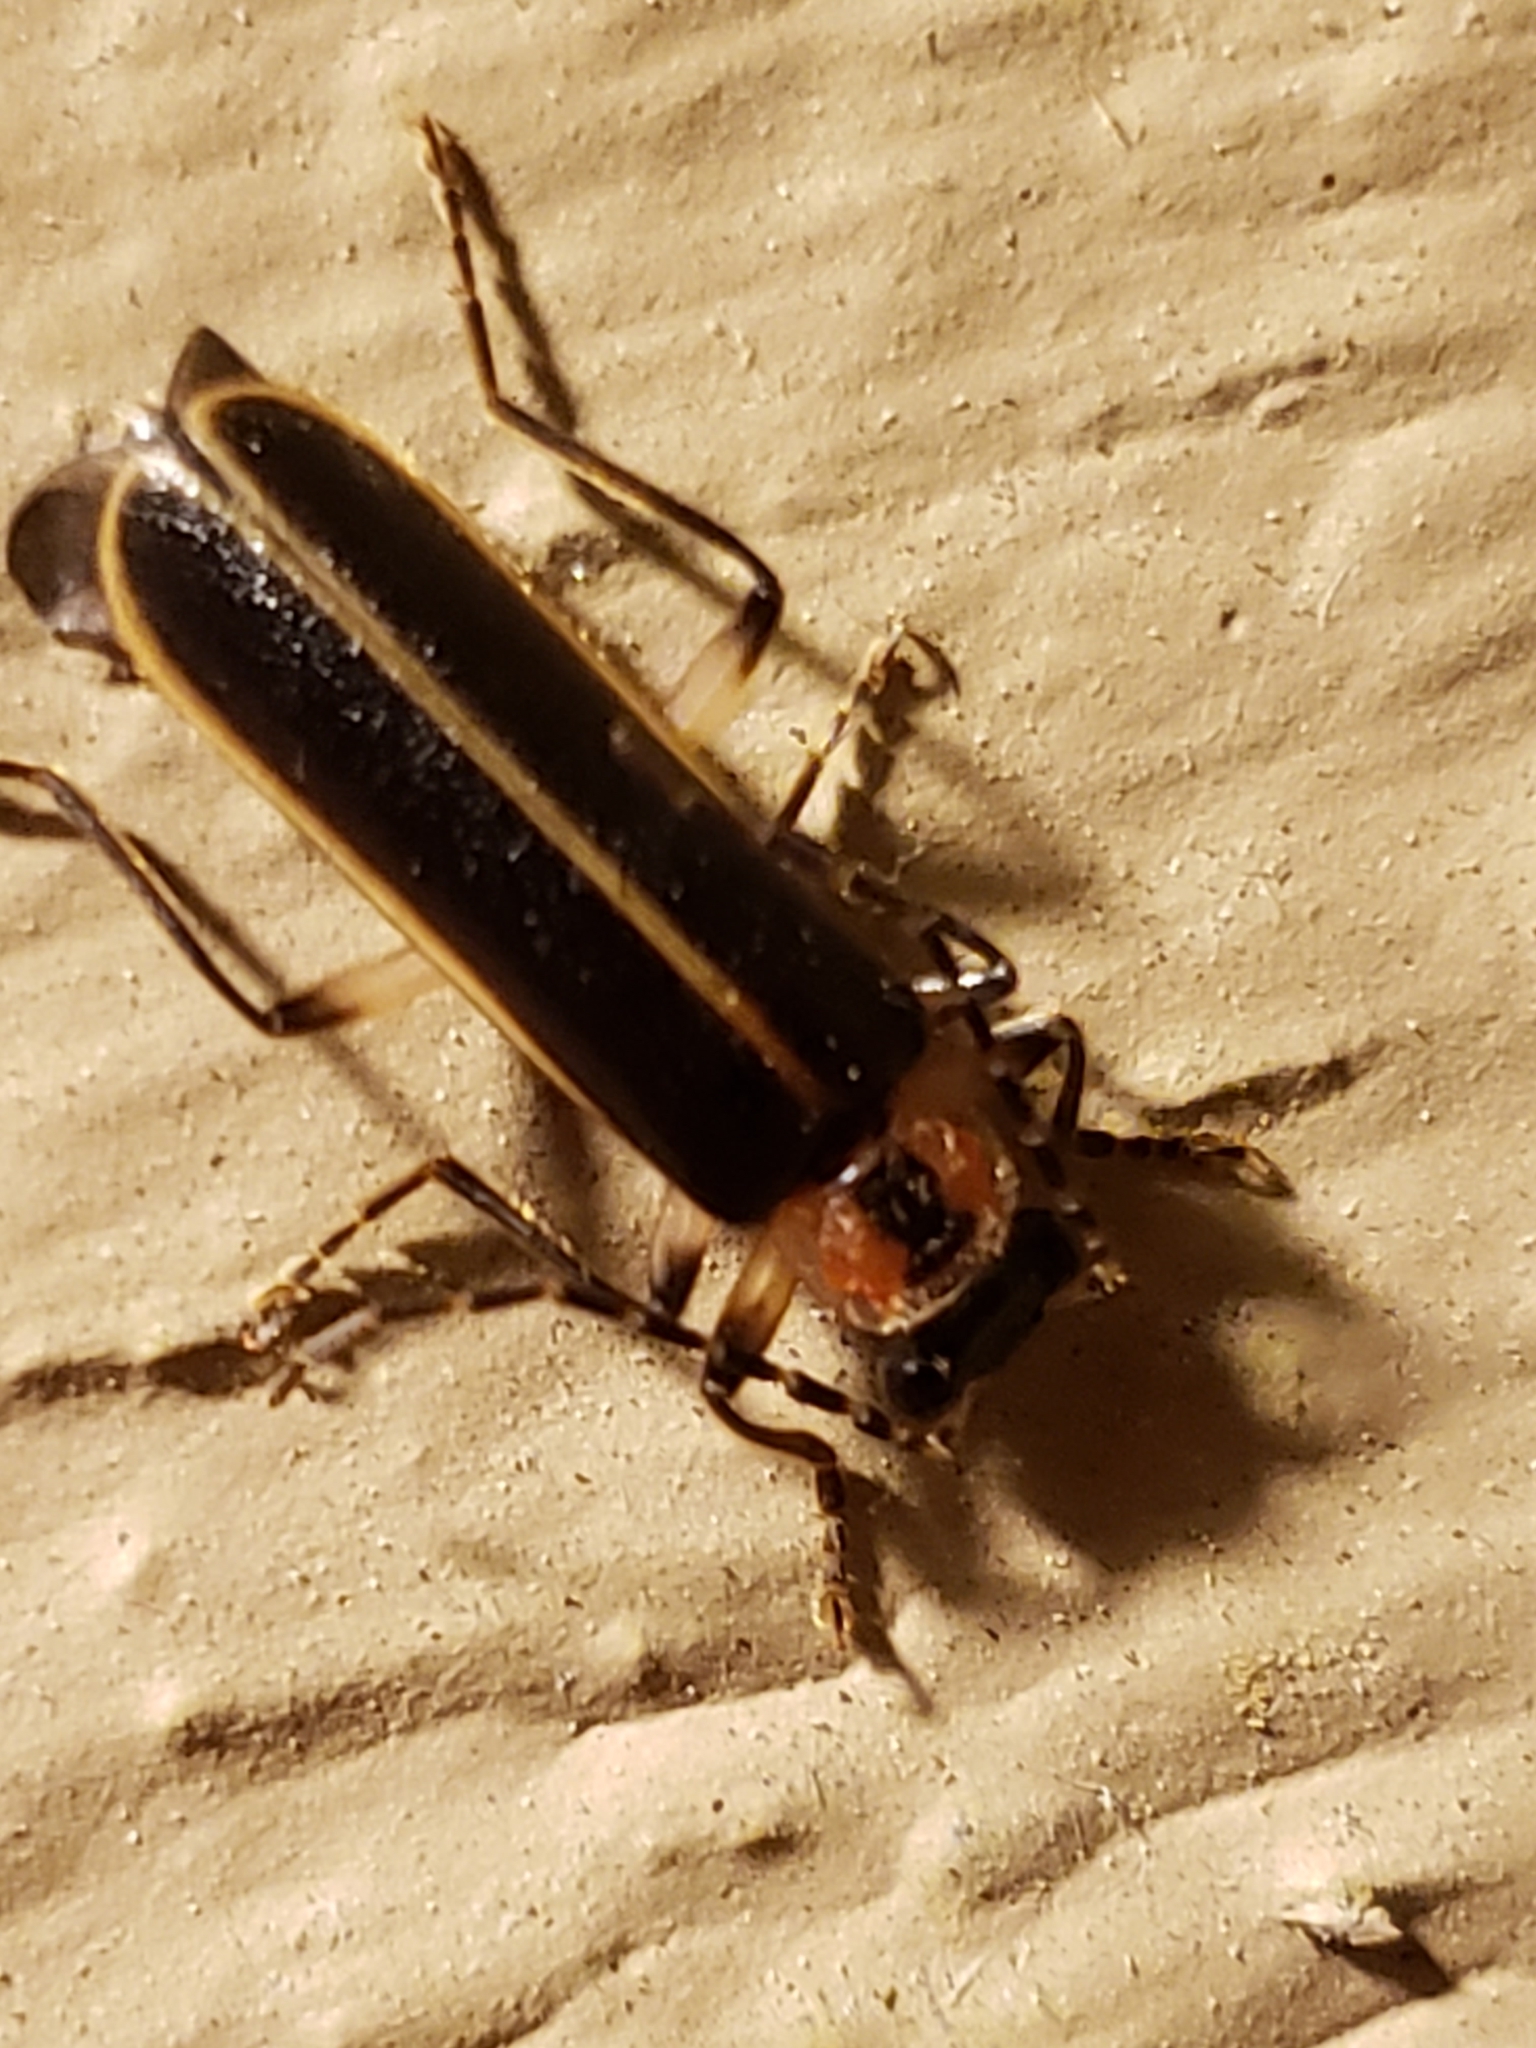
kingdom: Animalia
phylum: Arthropoda
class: Insecta
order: Coleoptera
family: Cantharidae
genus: Podabrus
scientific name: Podabrus basilaris
